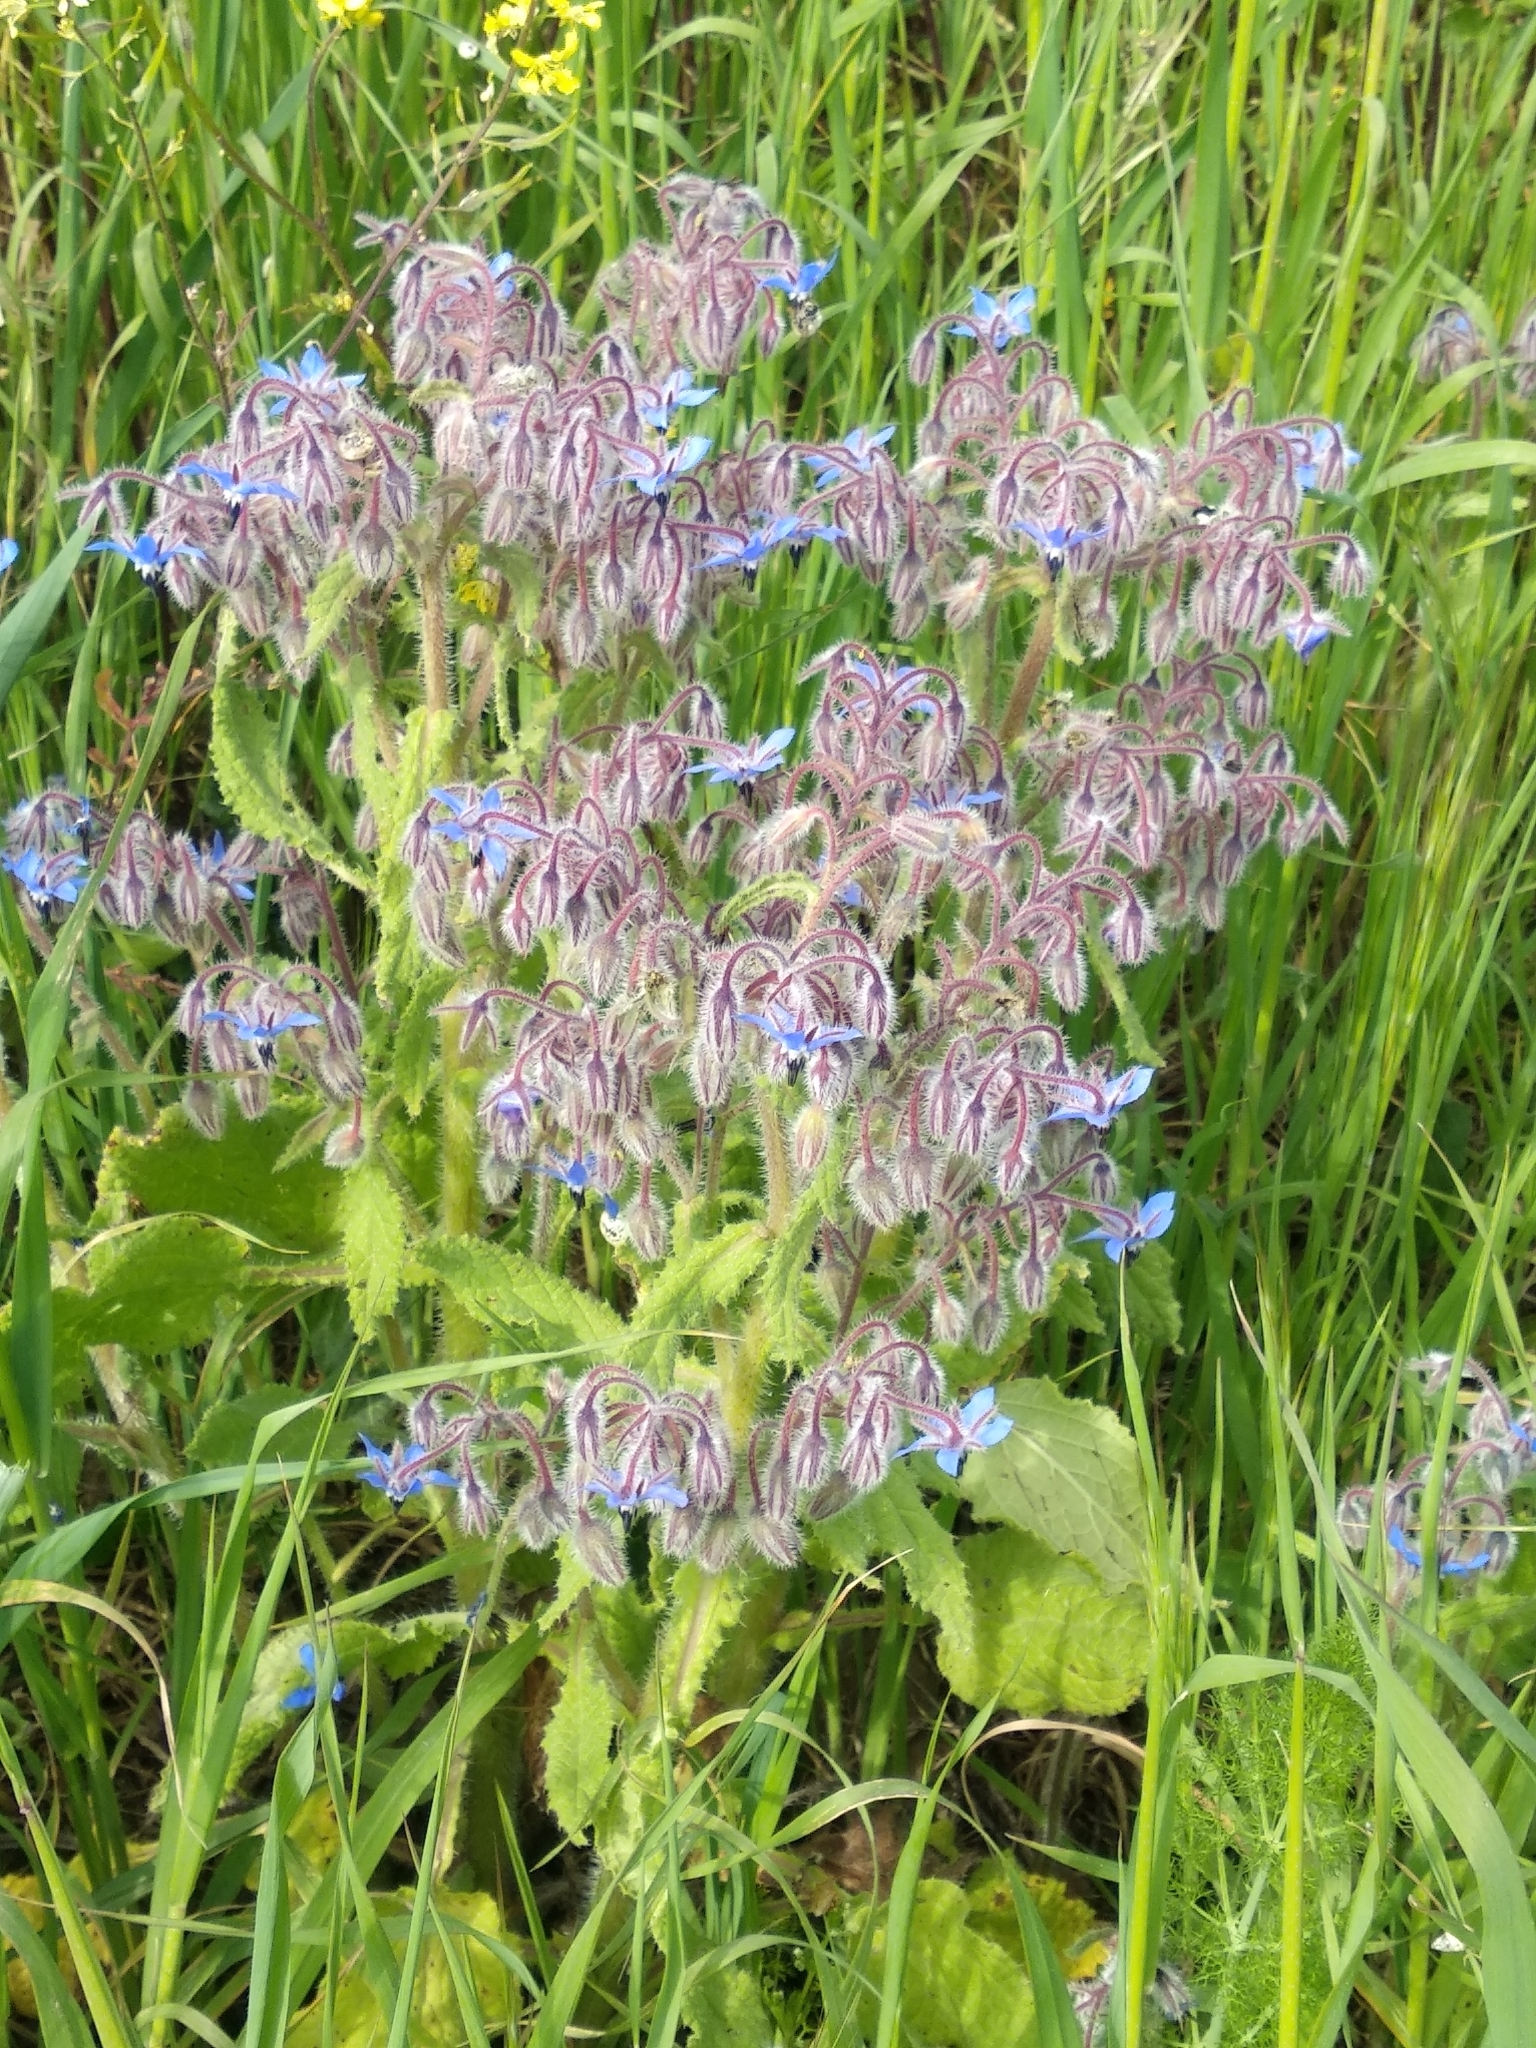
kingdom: Plantae
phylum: Tracheophyta
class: Magnoliopsida
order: Boraginales
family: Boraginaceae
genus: Borago
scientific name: Borago officinalis
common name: Borage
